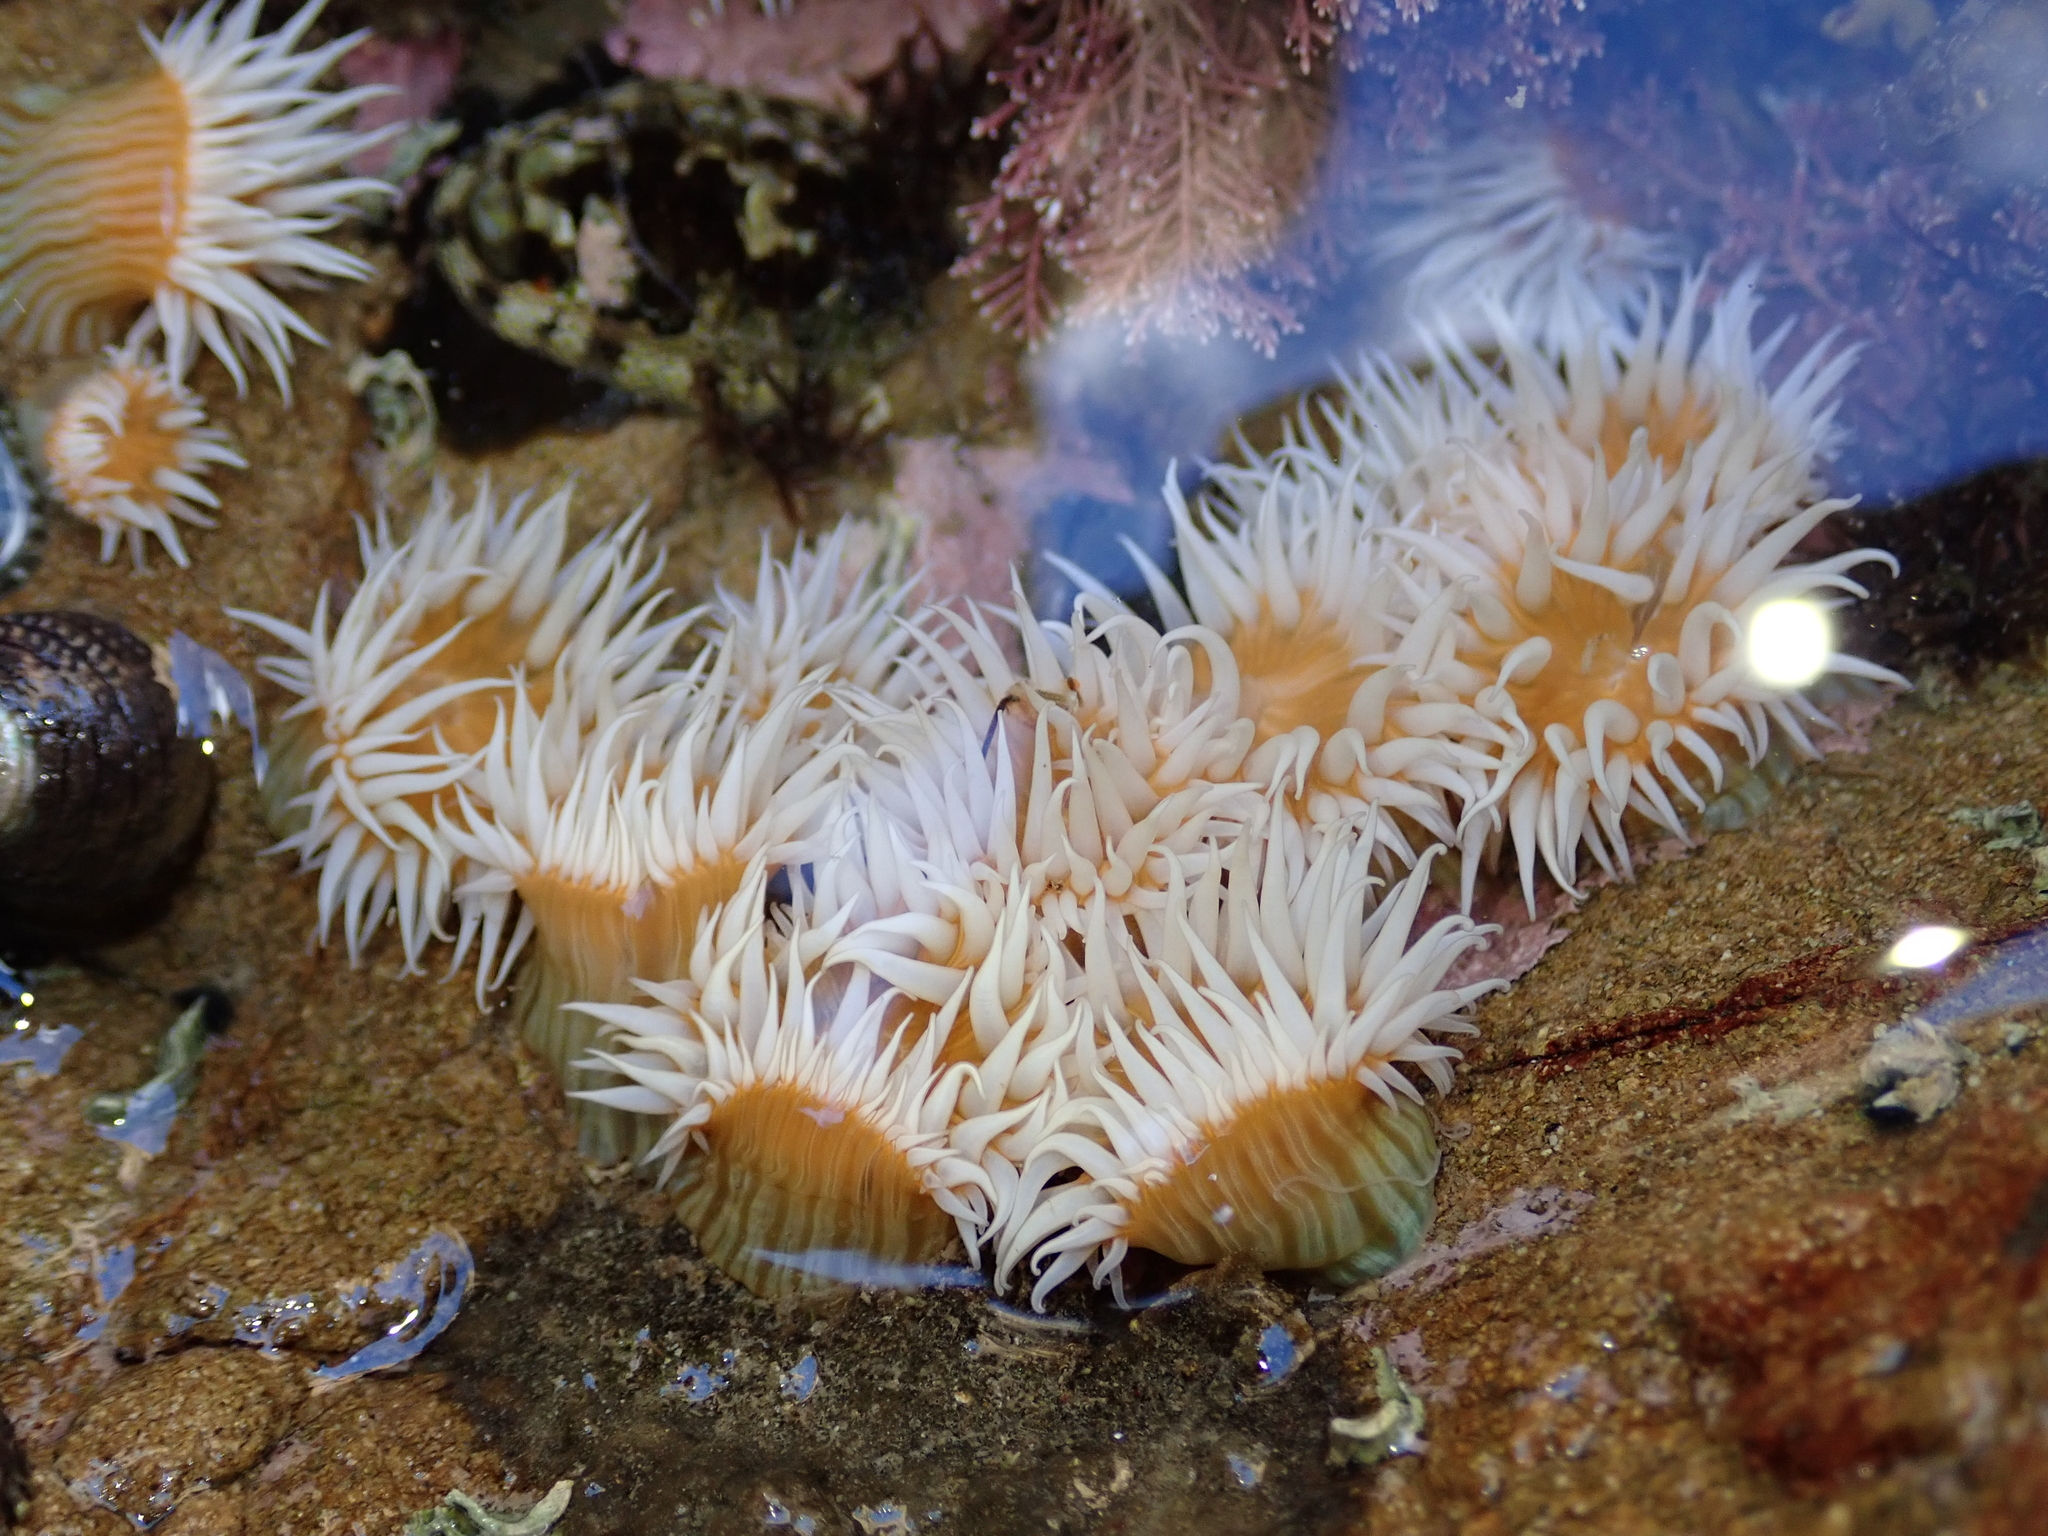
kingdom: Animalia
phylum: Cnidaria
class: Anthozoa
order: Actiniaria
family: Sagartiidae
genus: Anthothoe
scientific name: Anthothoe albocincta
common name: Orange striped anemone
